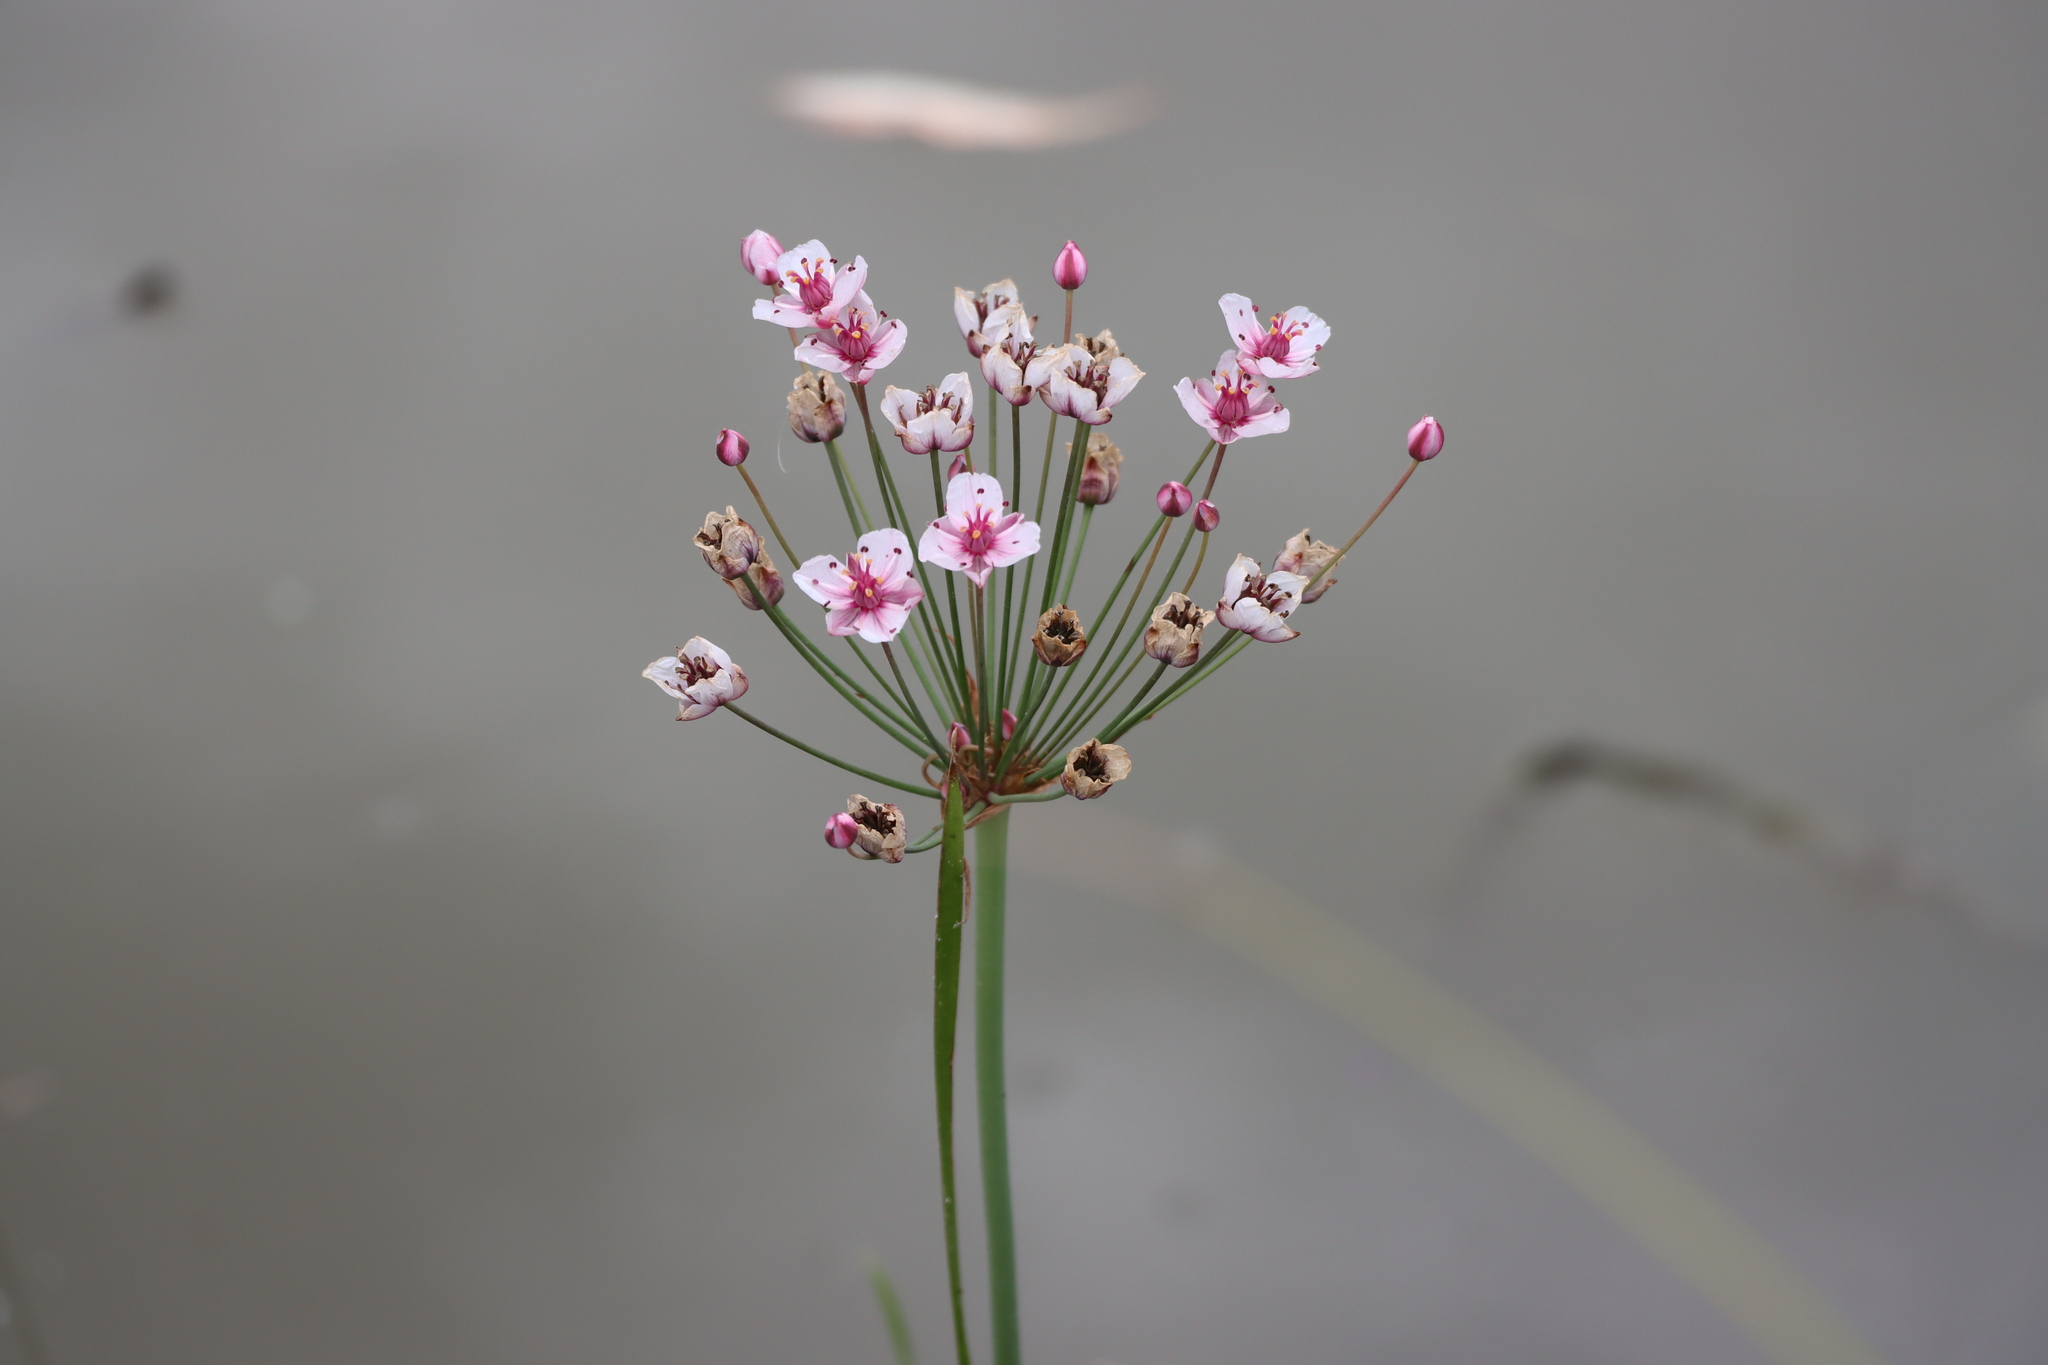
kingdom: Plantae
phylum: Tracheophyta
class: Liliopsida
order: Alismatales
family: Butomaceae
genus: Butomus
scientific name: Butomus umbellatus
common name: Flowering-rush
